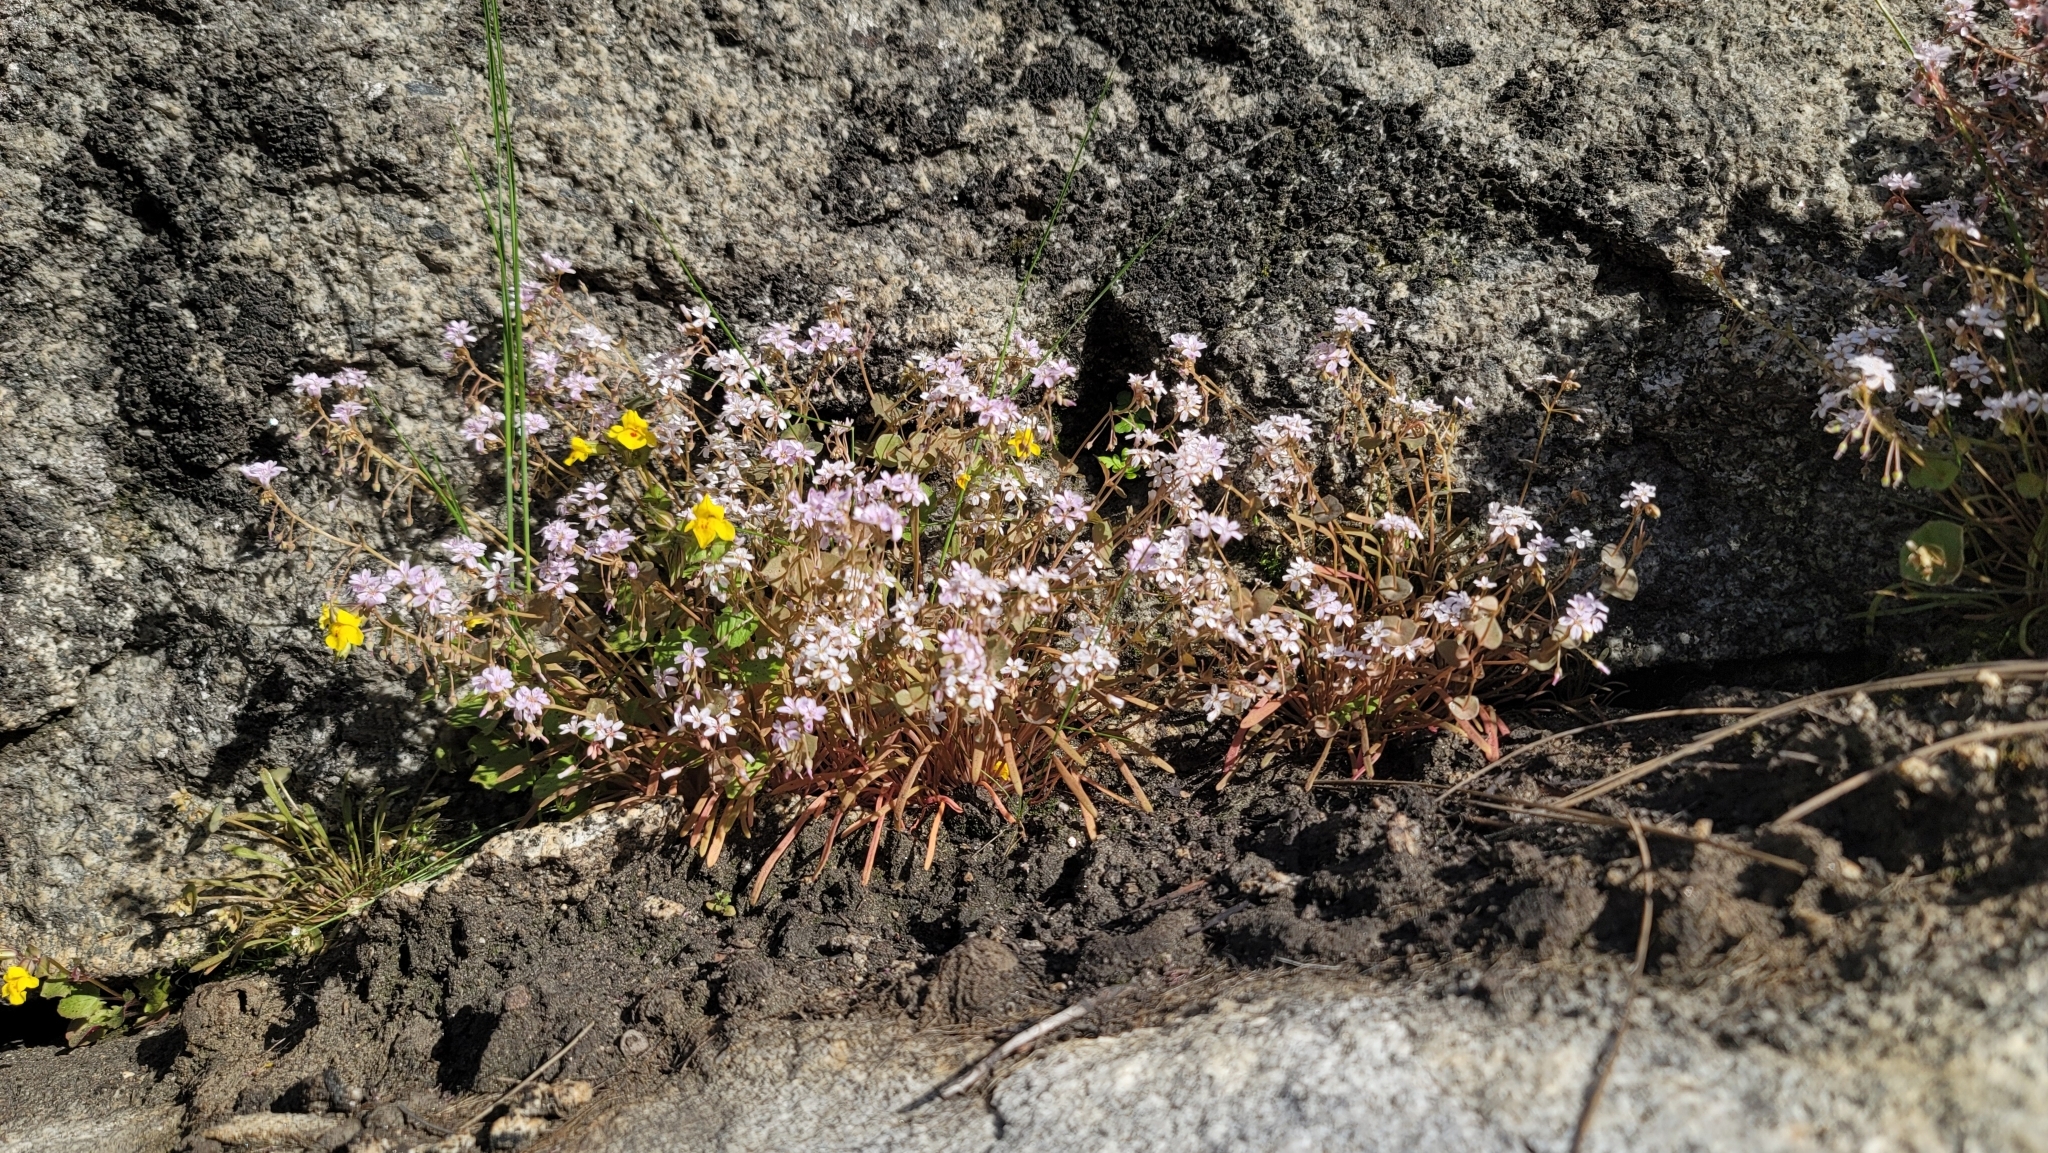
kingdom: Plantae
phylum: Tracheophyta
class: Magnoliopsida
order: Caryophyllales
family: Montiaceae
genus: Claytonia
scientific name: Claytonia parviflora
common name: Indian-lettuce
